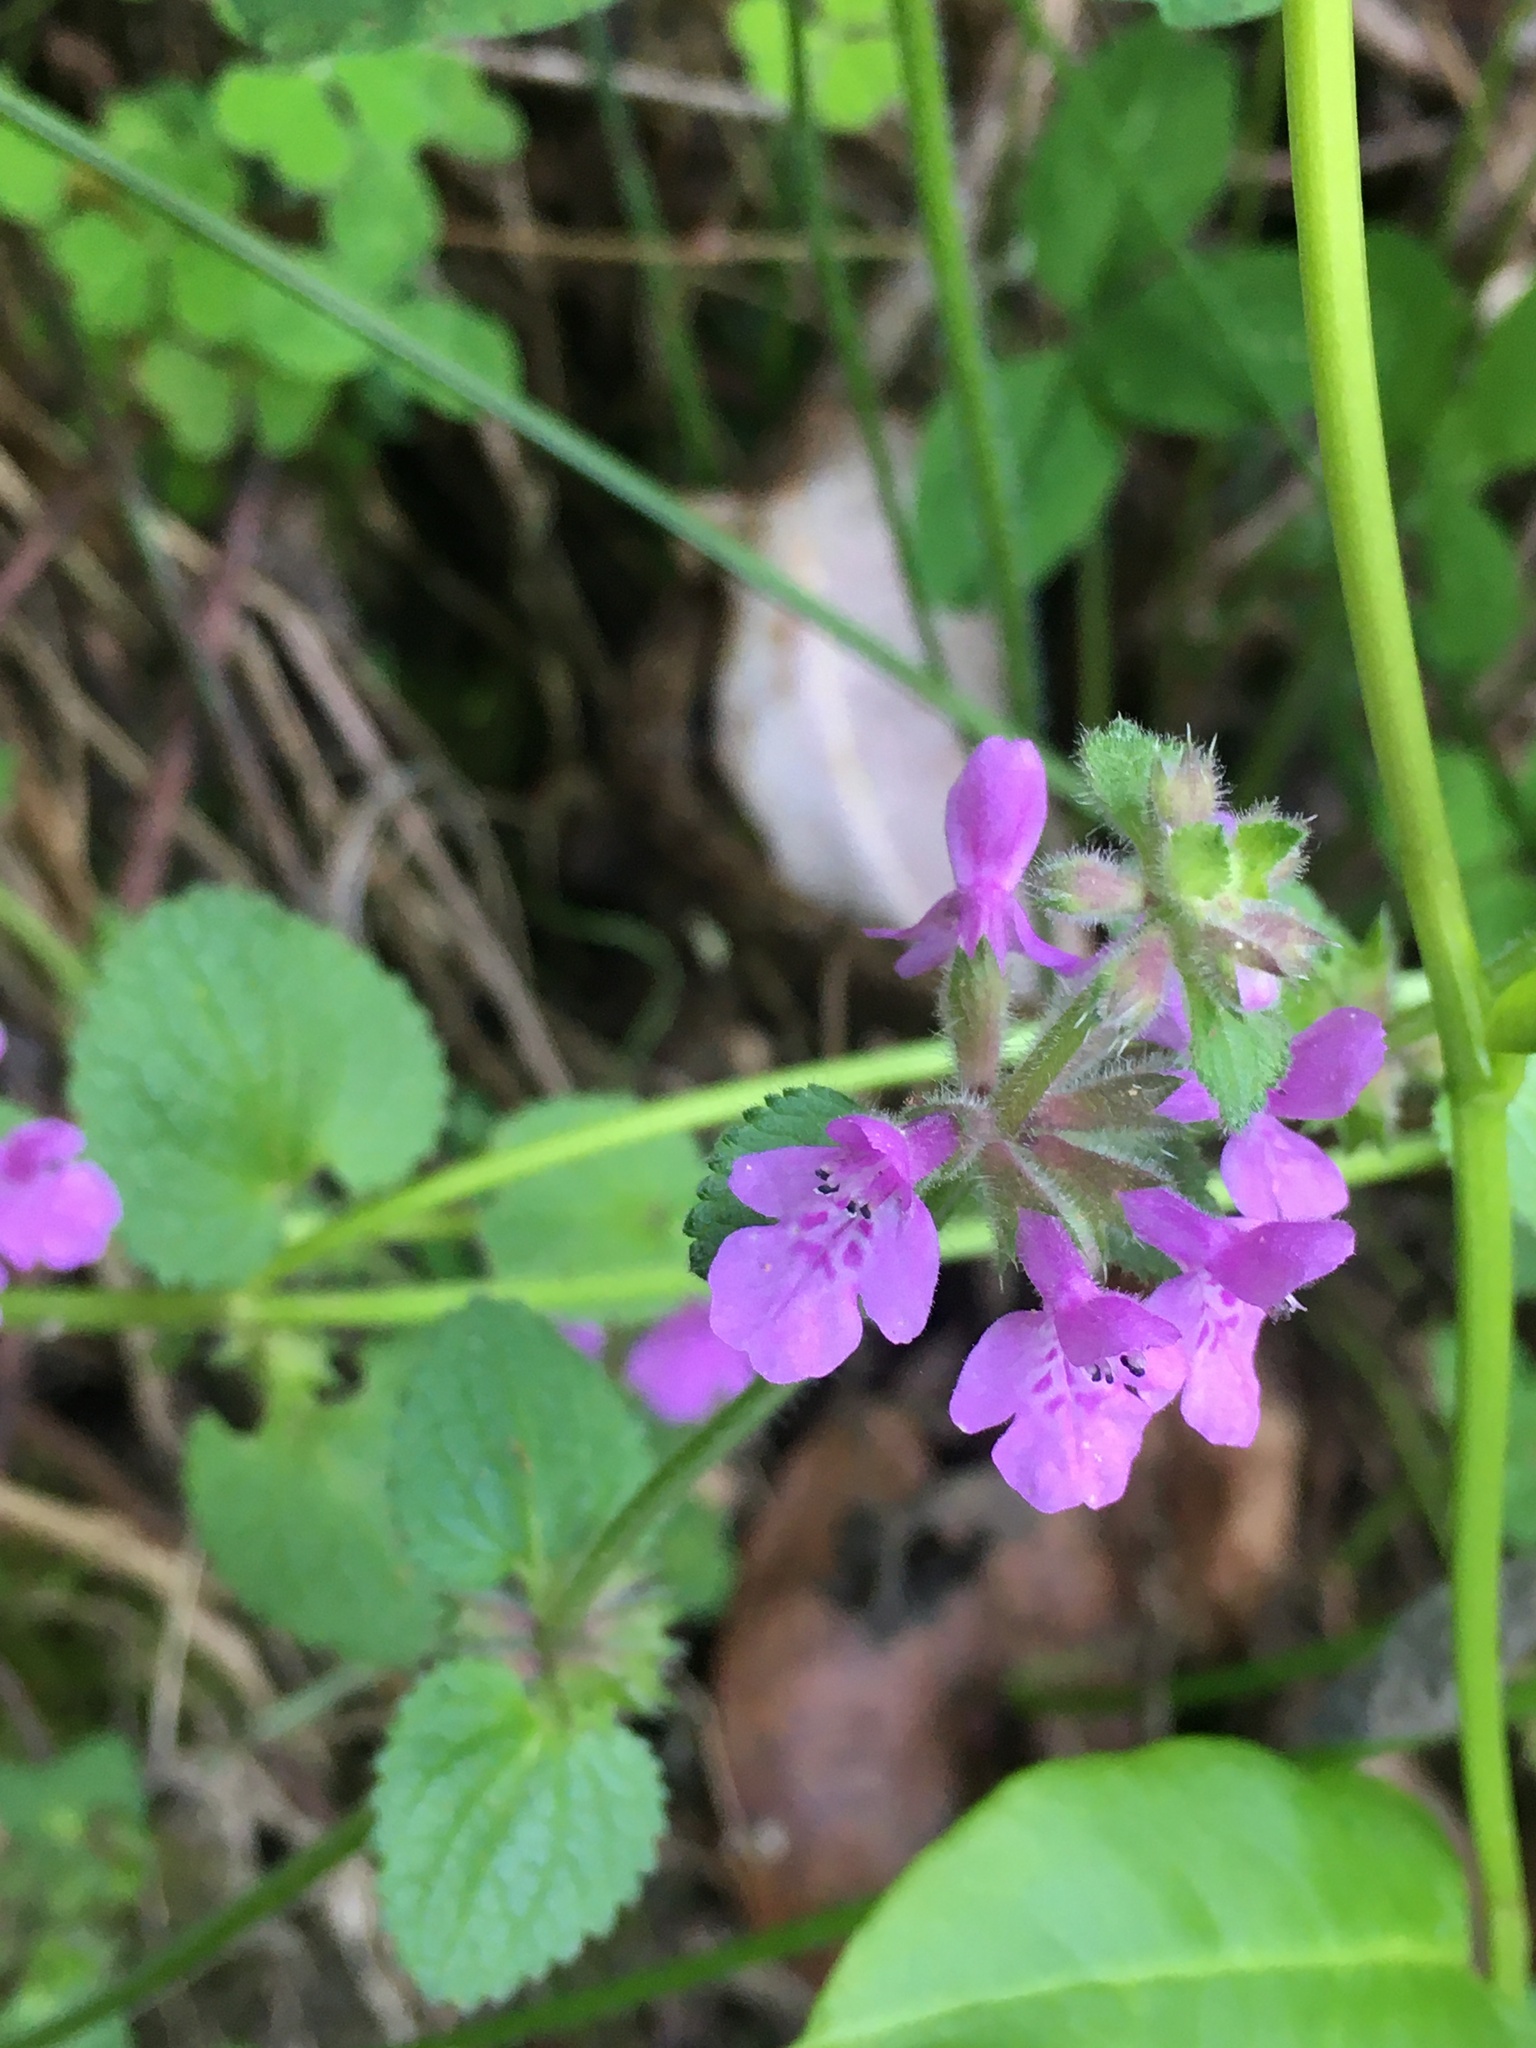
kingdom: Plantae
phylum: Tracheophyta
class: Magnoliopsida
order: Lamiales
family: Lamiaceae
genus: Stachys
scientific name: Stachys bogotensis
